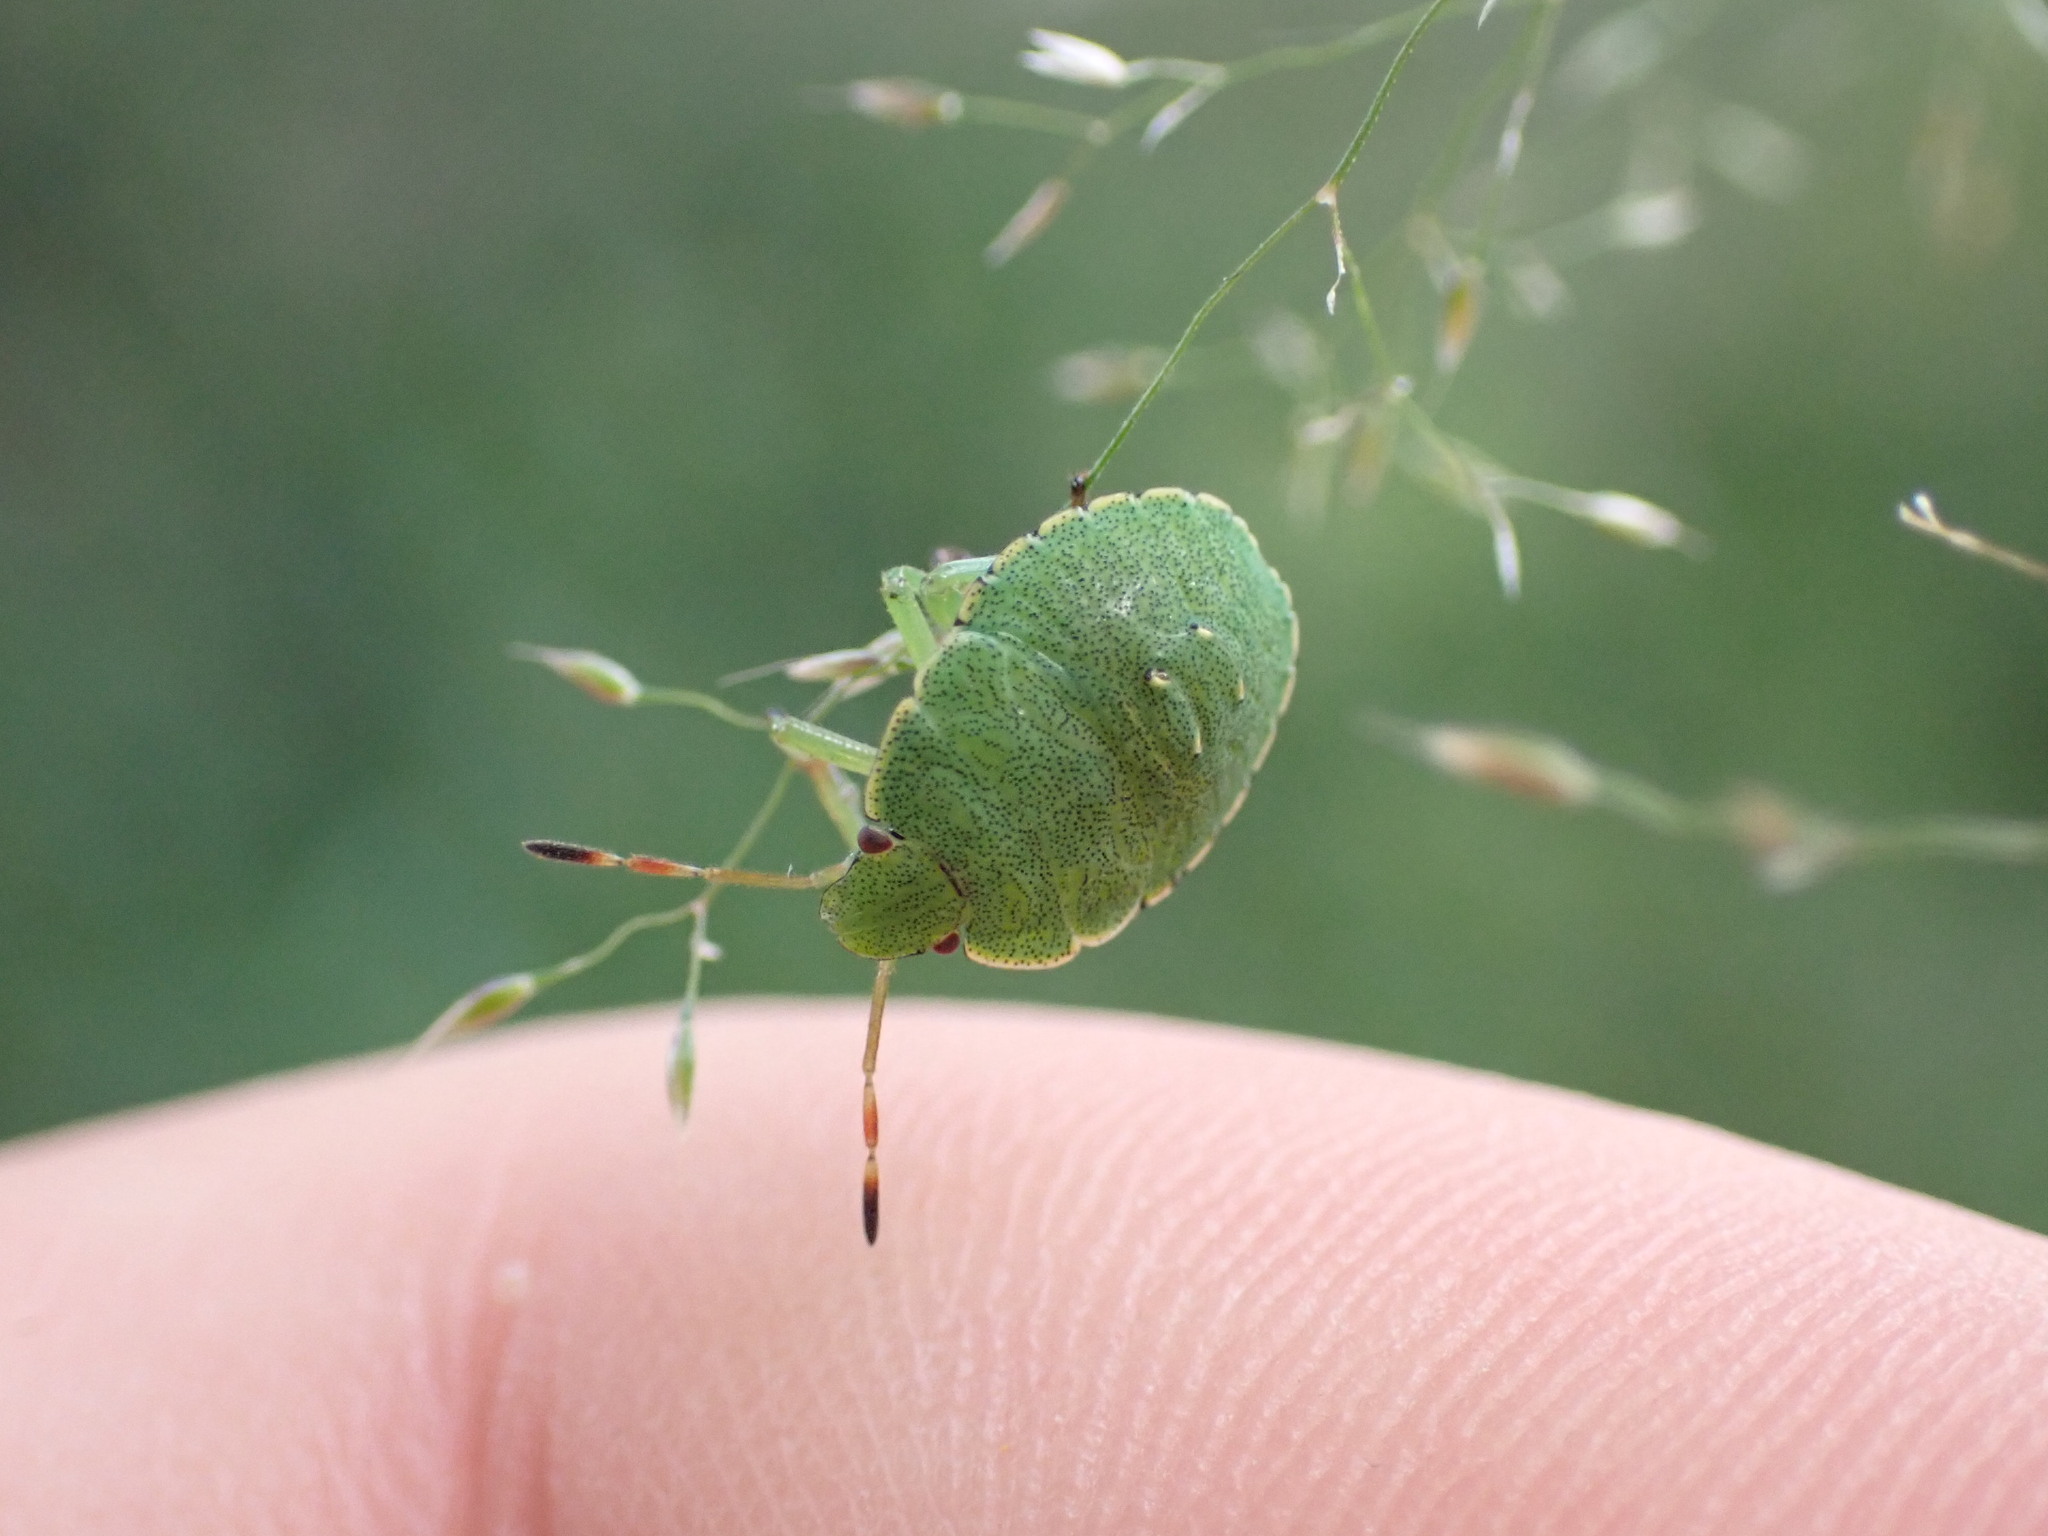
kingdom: Animalia
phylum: Arthropoda
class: Insecta
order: Hemiptera
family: Pentatomidae
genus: Palomena
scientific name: Palomena prasina
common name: Green shieldbug
